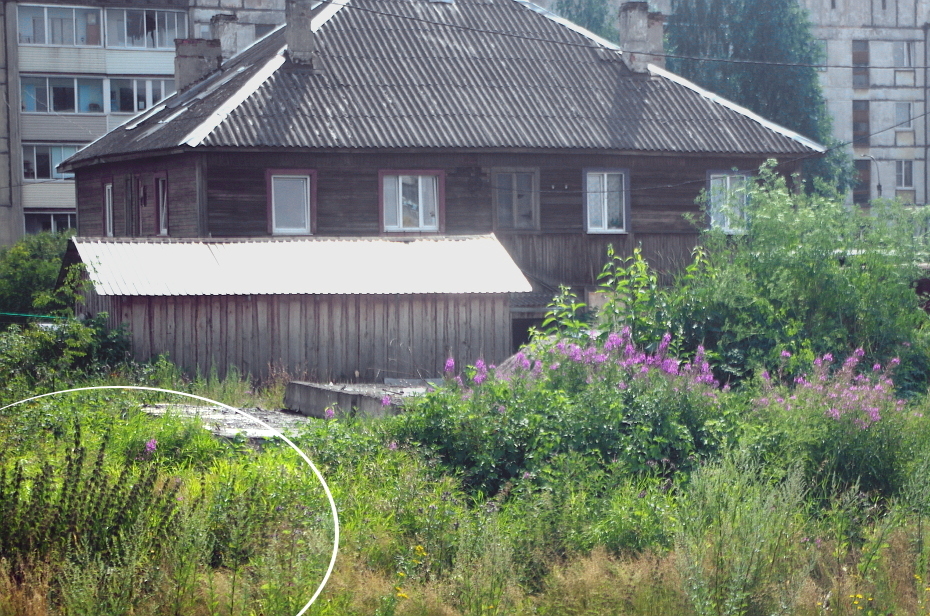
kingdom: Plantae
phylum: Tracheophyta
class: Magnoliopsida
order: Rosales
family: Urticaceae
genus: Urtica
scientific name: Urtica dioica
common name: Common nettle
